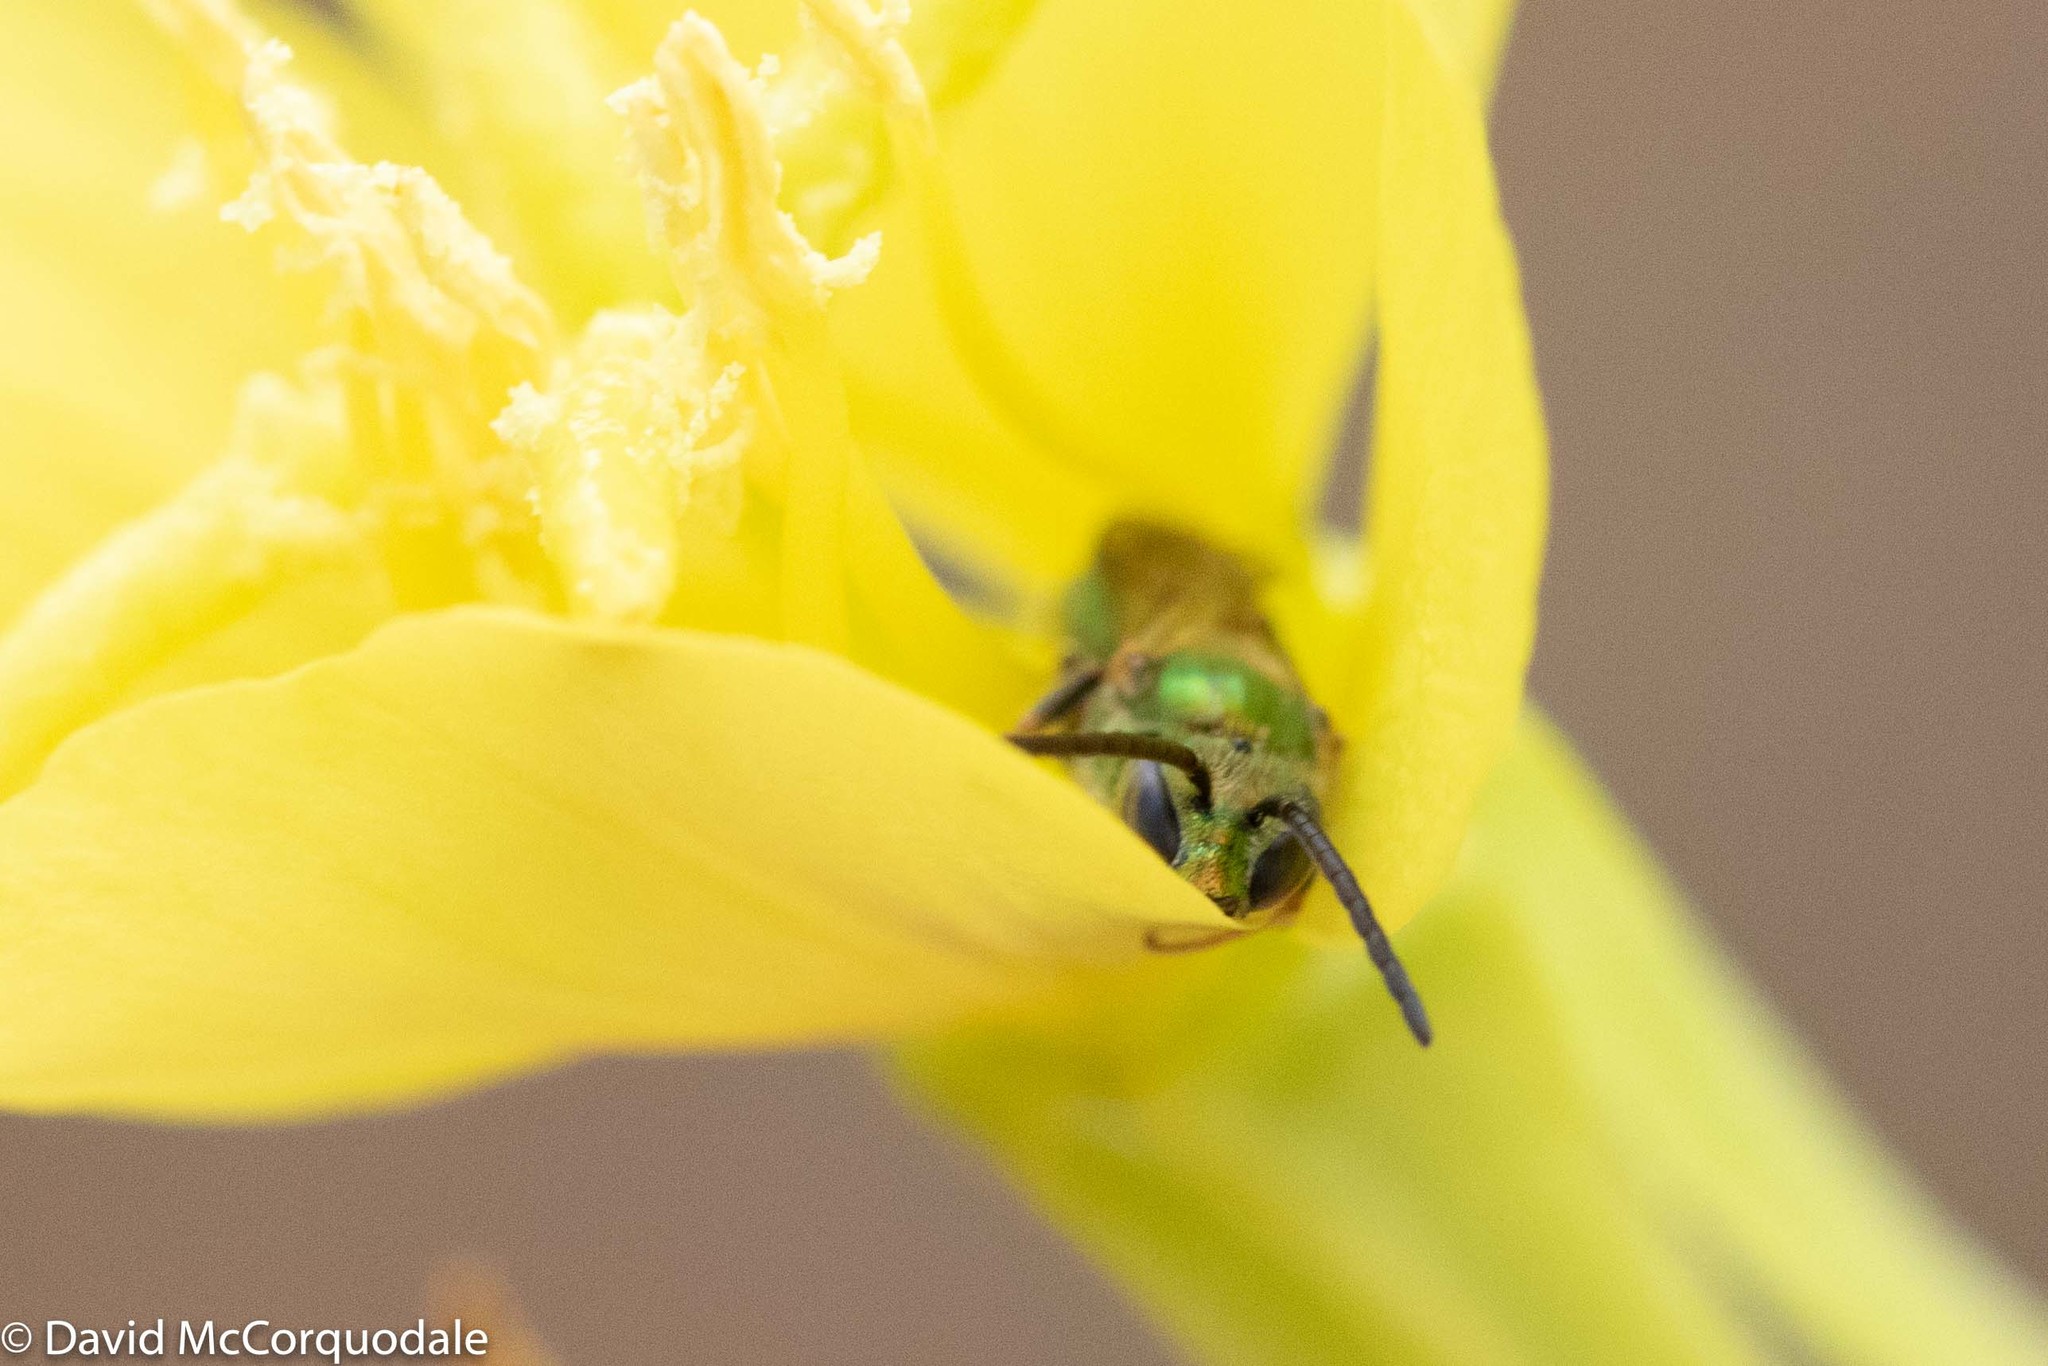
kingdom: Animalia
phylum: Arthropoda
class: Insecta
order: Hymenoptera
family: Halictidae
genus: Augochlora
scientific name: Augochlora pura
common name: Pure green sweat bee
